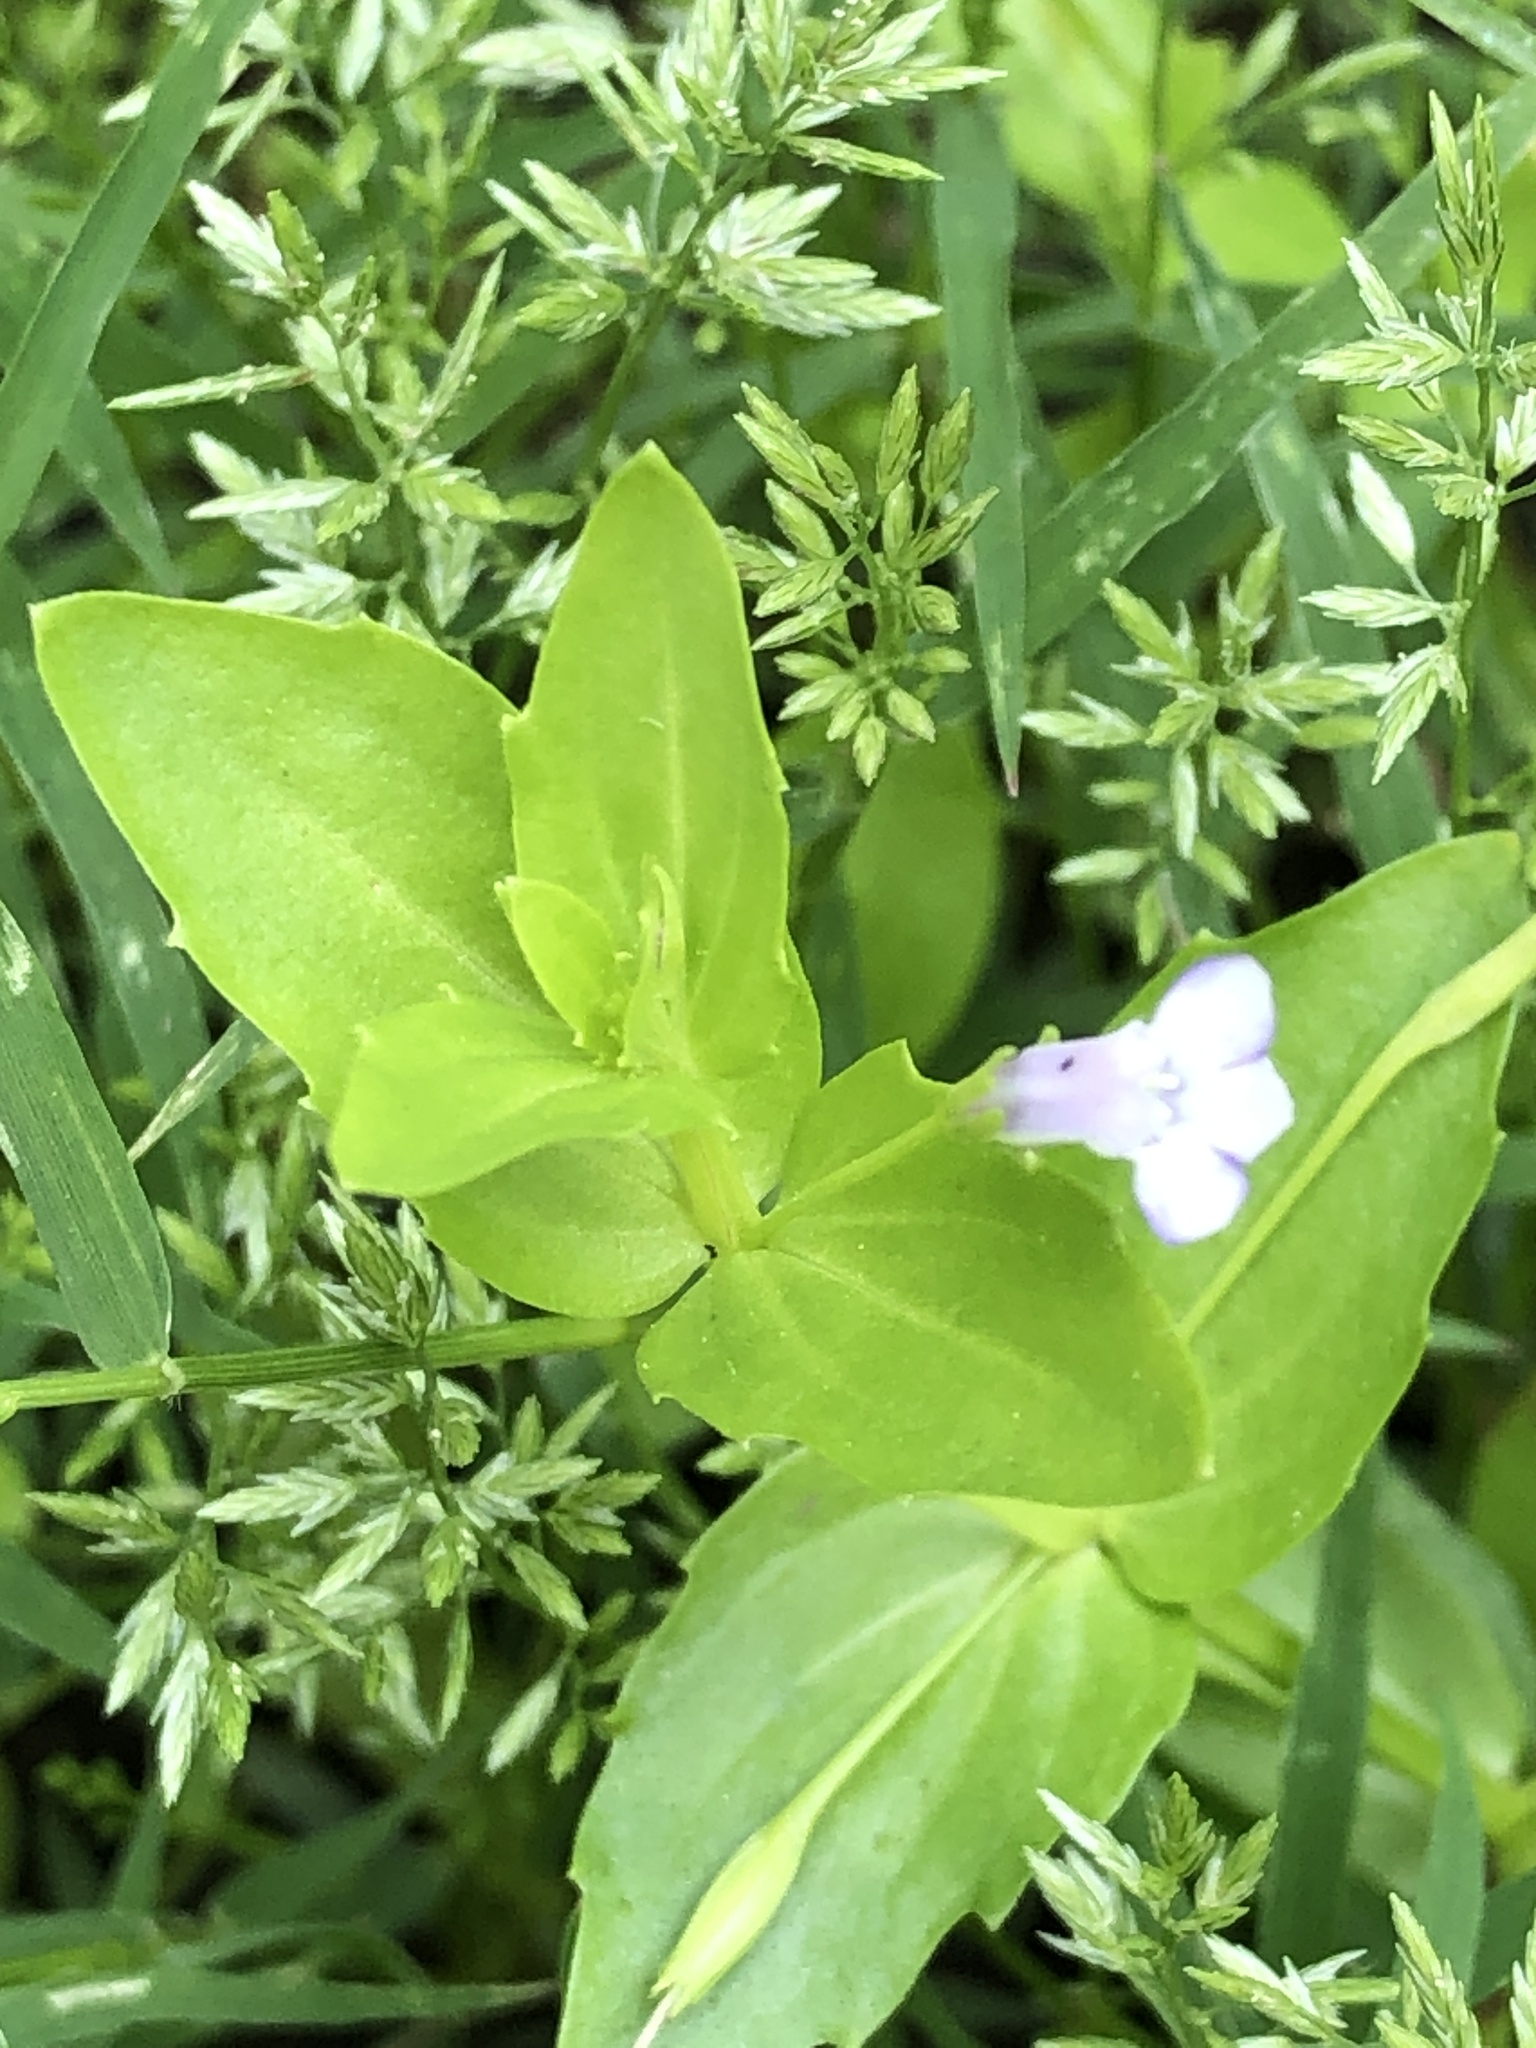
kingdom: Plantae
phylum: Tracheophyta
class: Magnoliopsida
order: Lamiales
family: Linderniaceae
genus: Lindernia
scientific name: Lindernia dubia
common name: Annual false pimpernel
